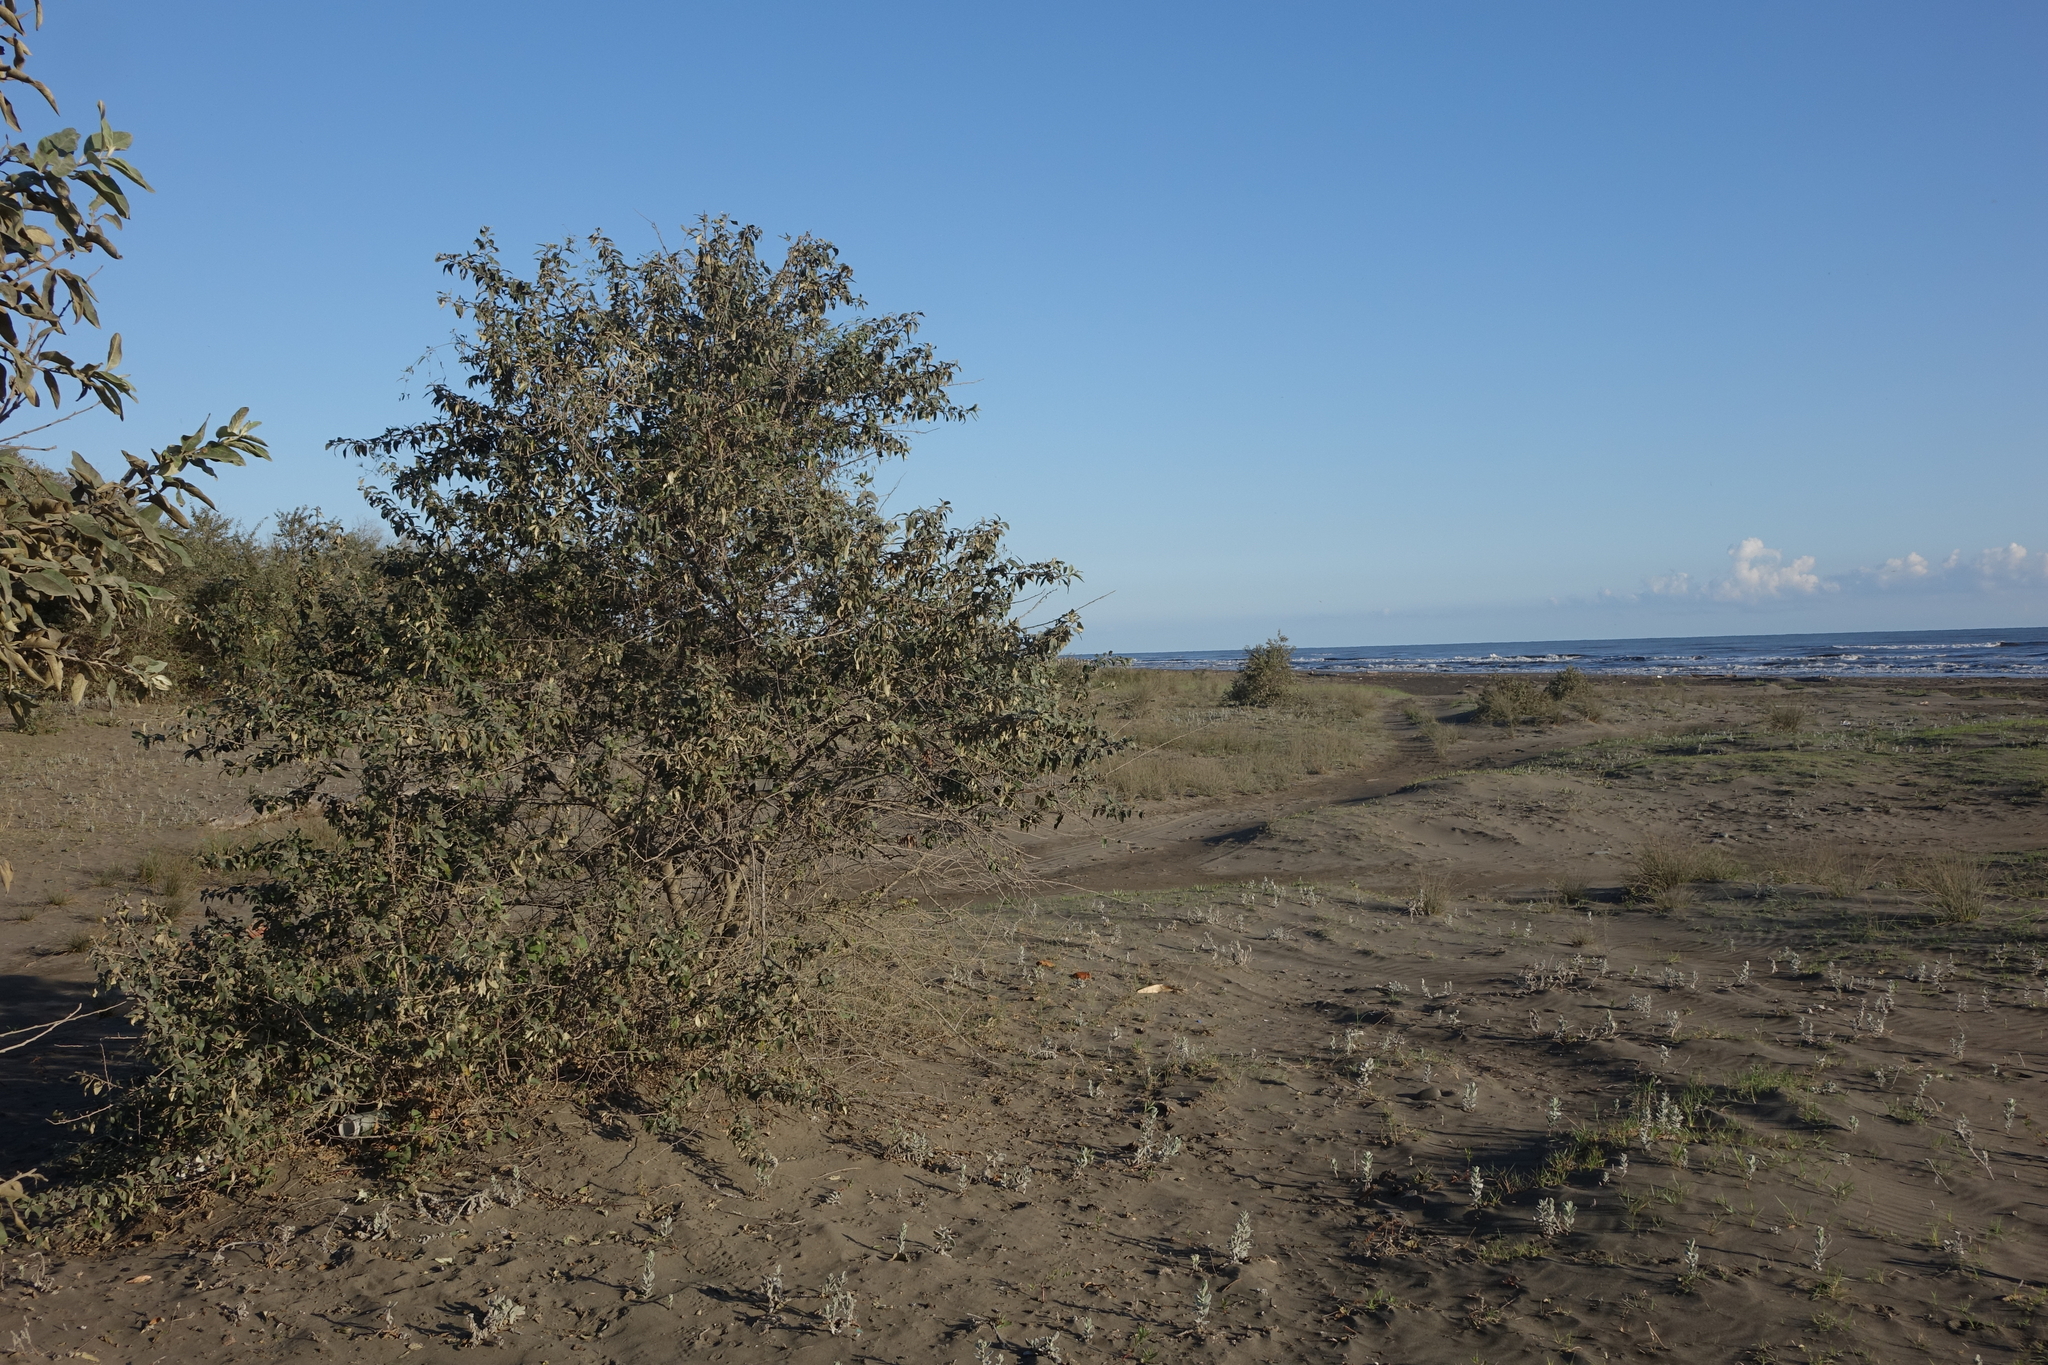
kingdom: Plantae
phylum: Tracheophyta
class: Magnoliopsida
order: Rosales
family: Elaeagnaceae
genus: Elaeagnus
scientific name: Elaeagnus angustifolia
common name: Russian olive
